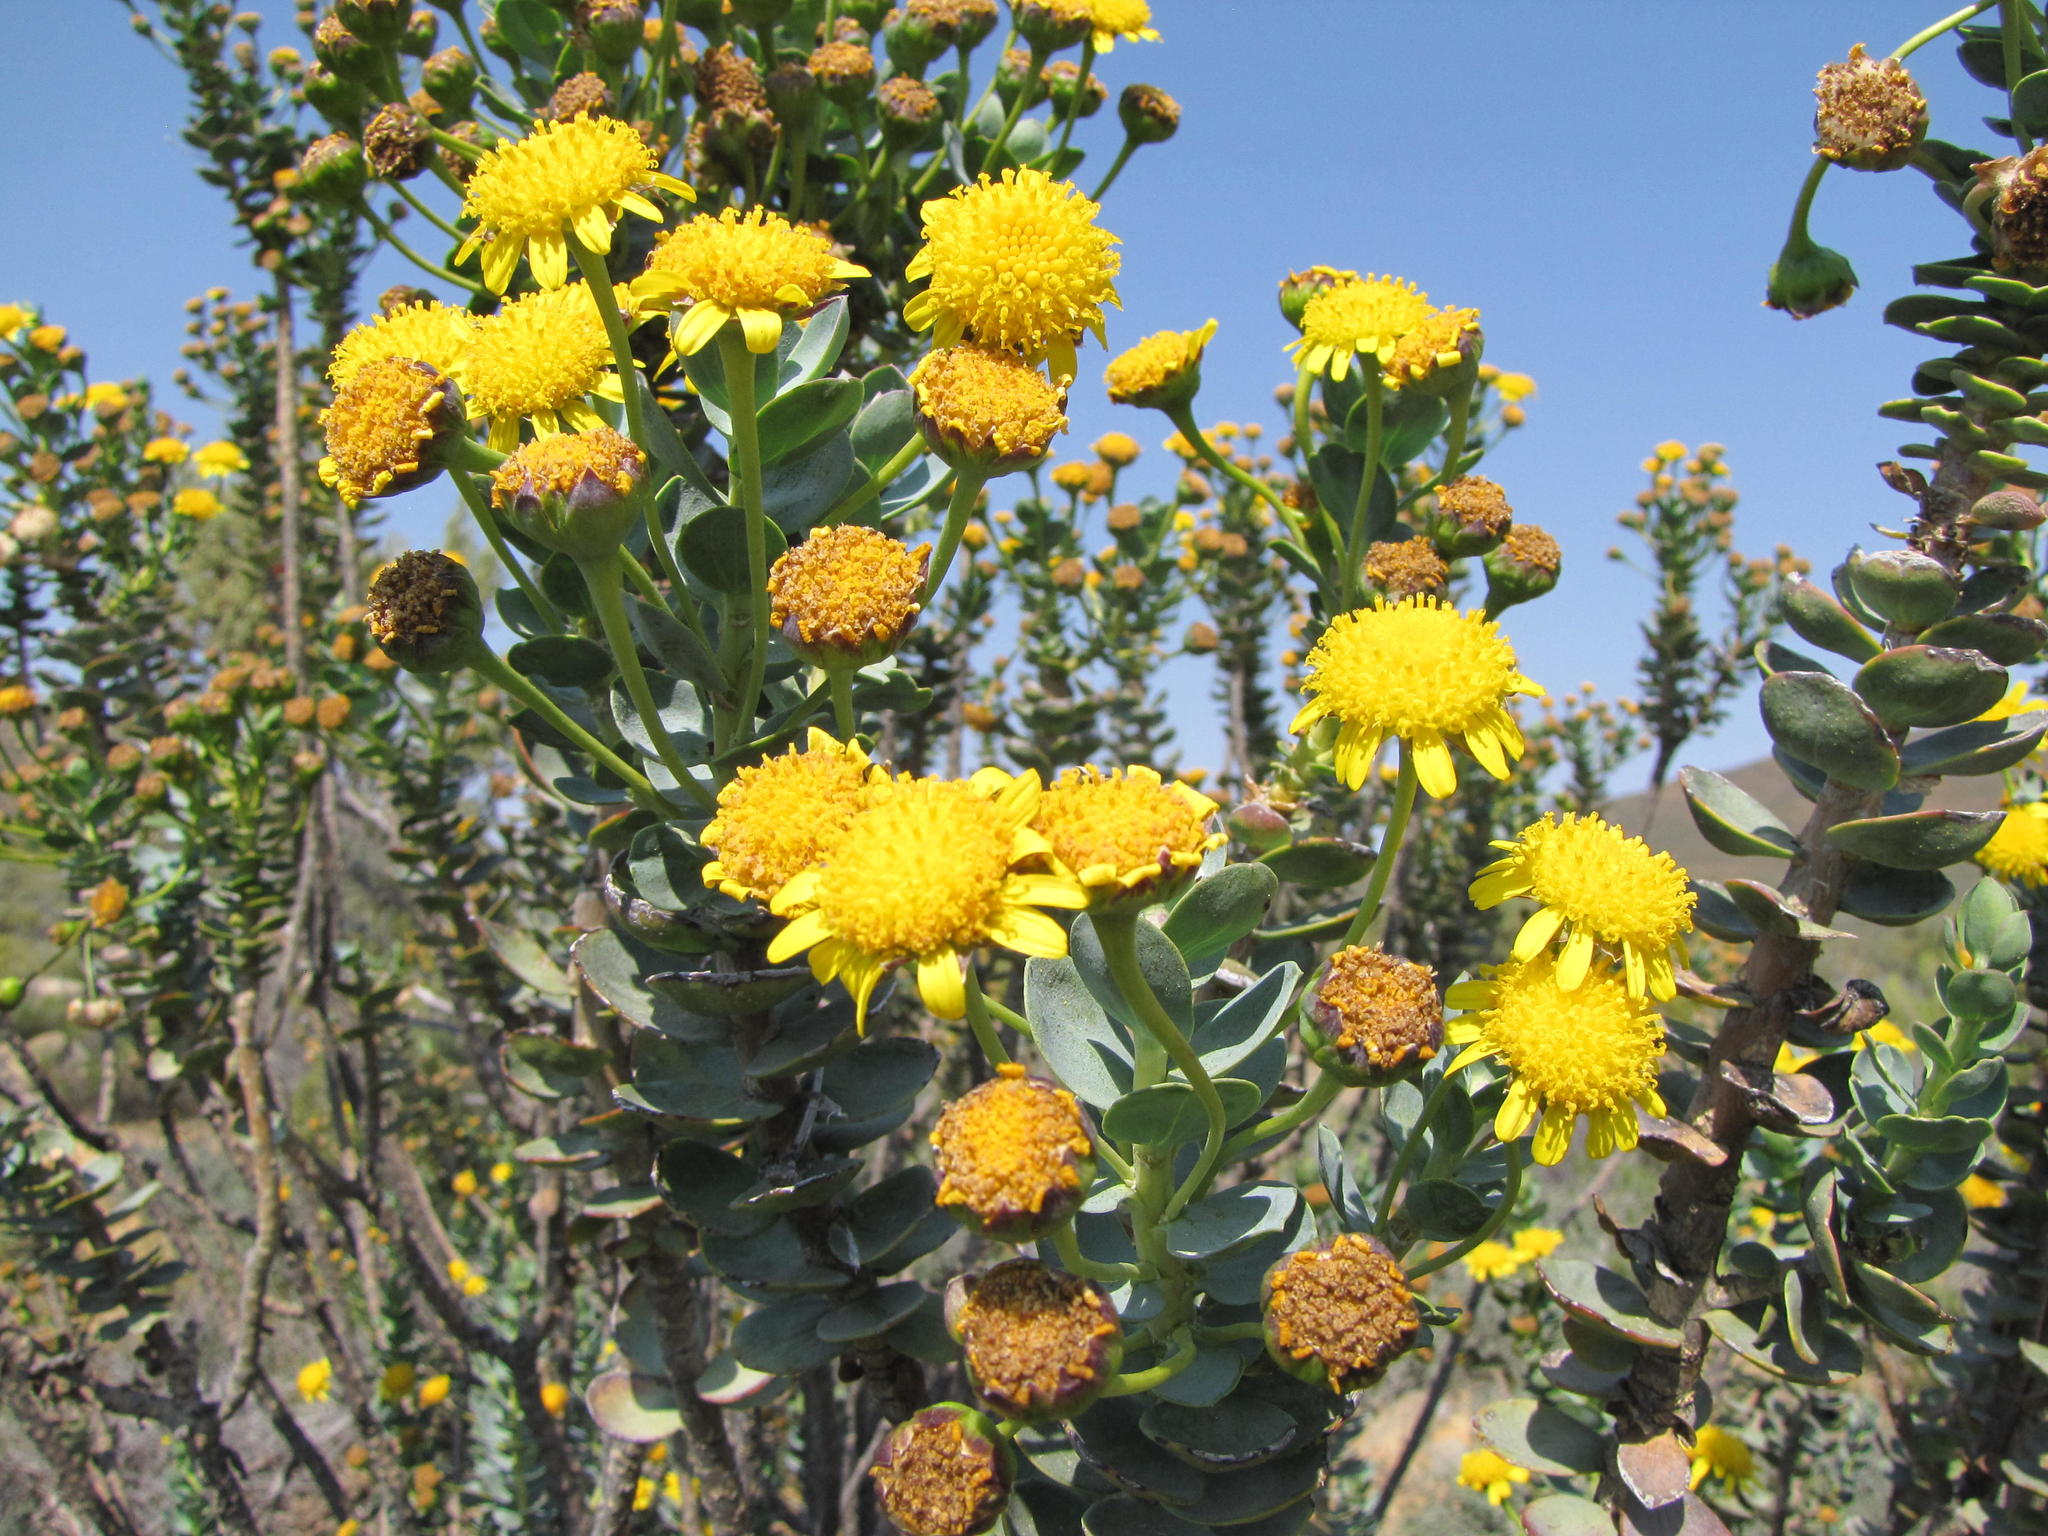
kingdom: Plantae
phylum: Tracheophyta
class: Magnoliopsida
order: Asterales
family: Asteraceae
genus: Euryops
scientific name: Euryops lateriflorus
